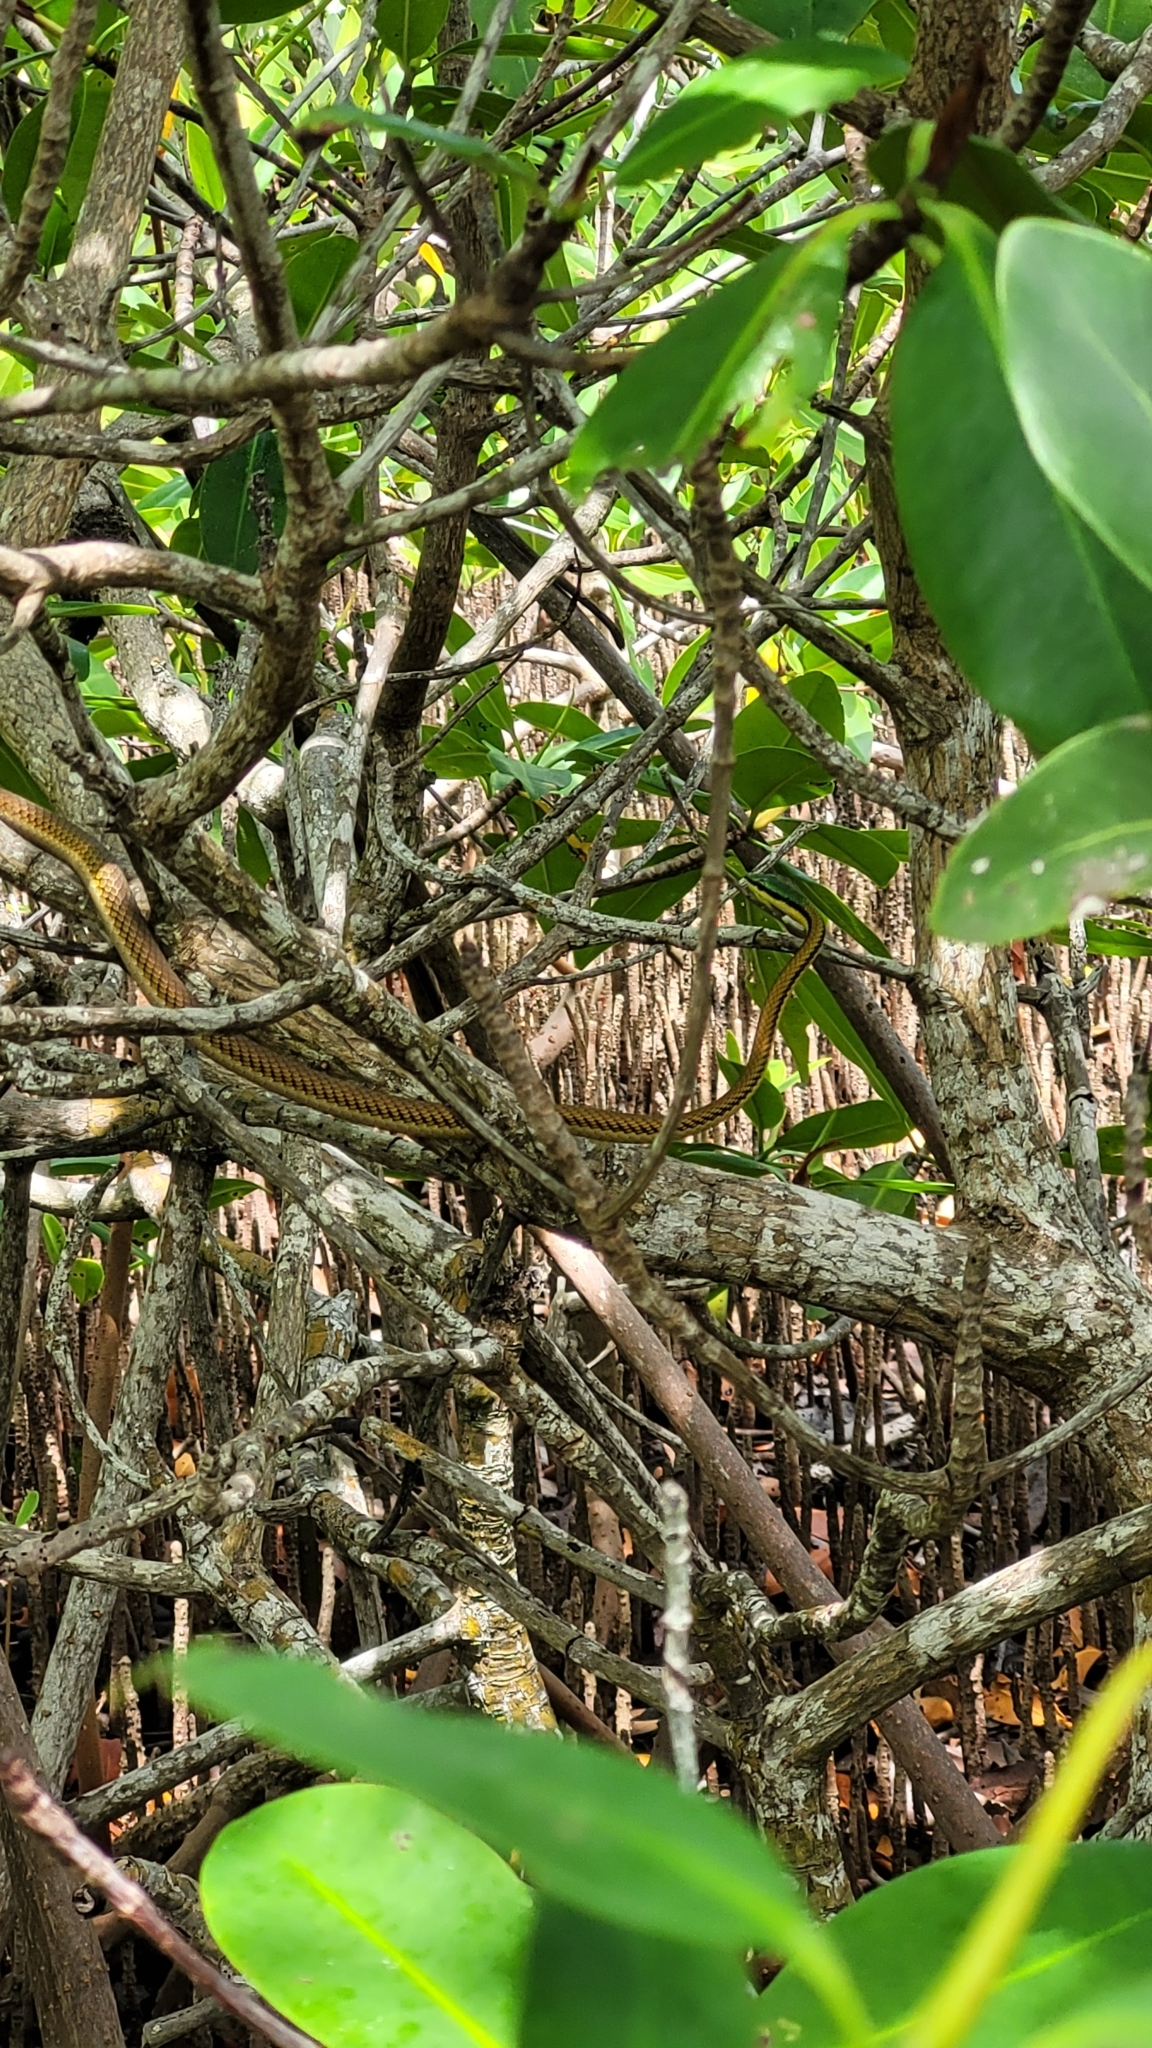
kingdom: Animalia
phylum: Chordata
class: Squamata
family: Colubridae
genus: Leptophis
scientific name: Leptophis mexicanus
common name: Mexican parrot snake
